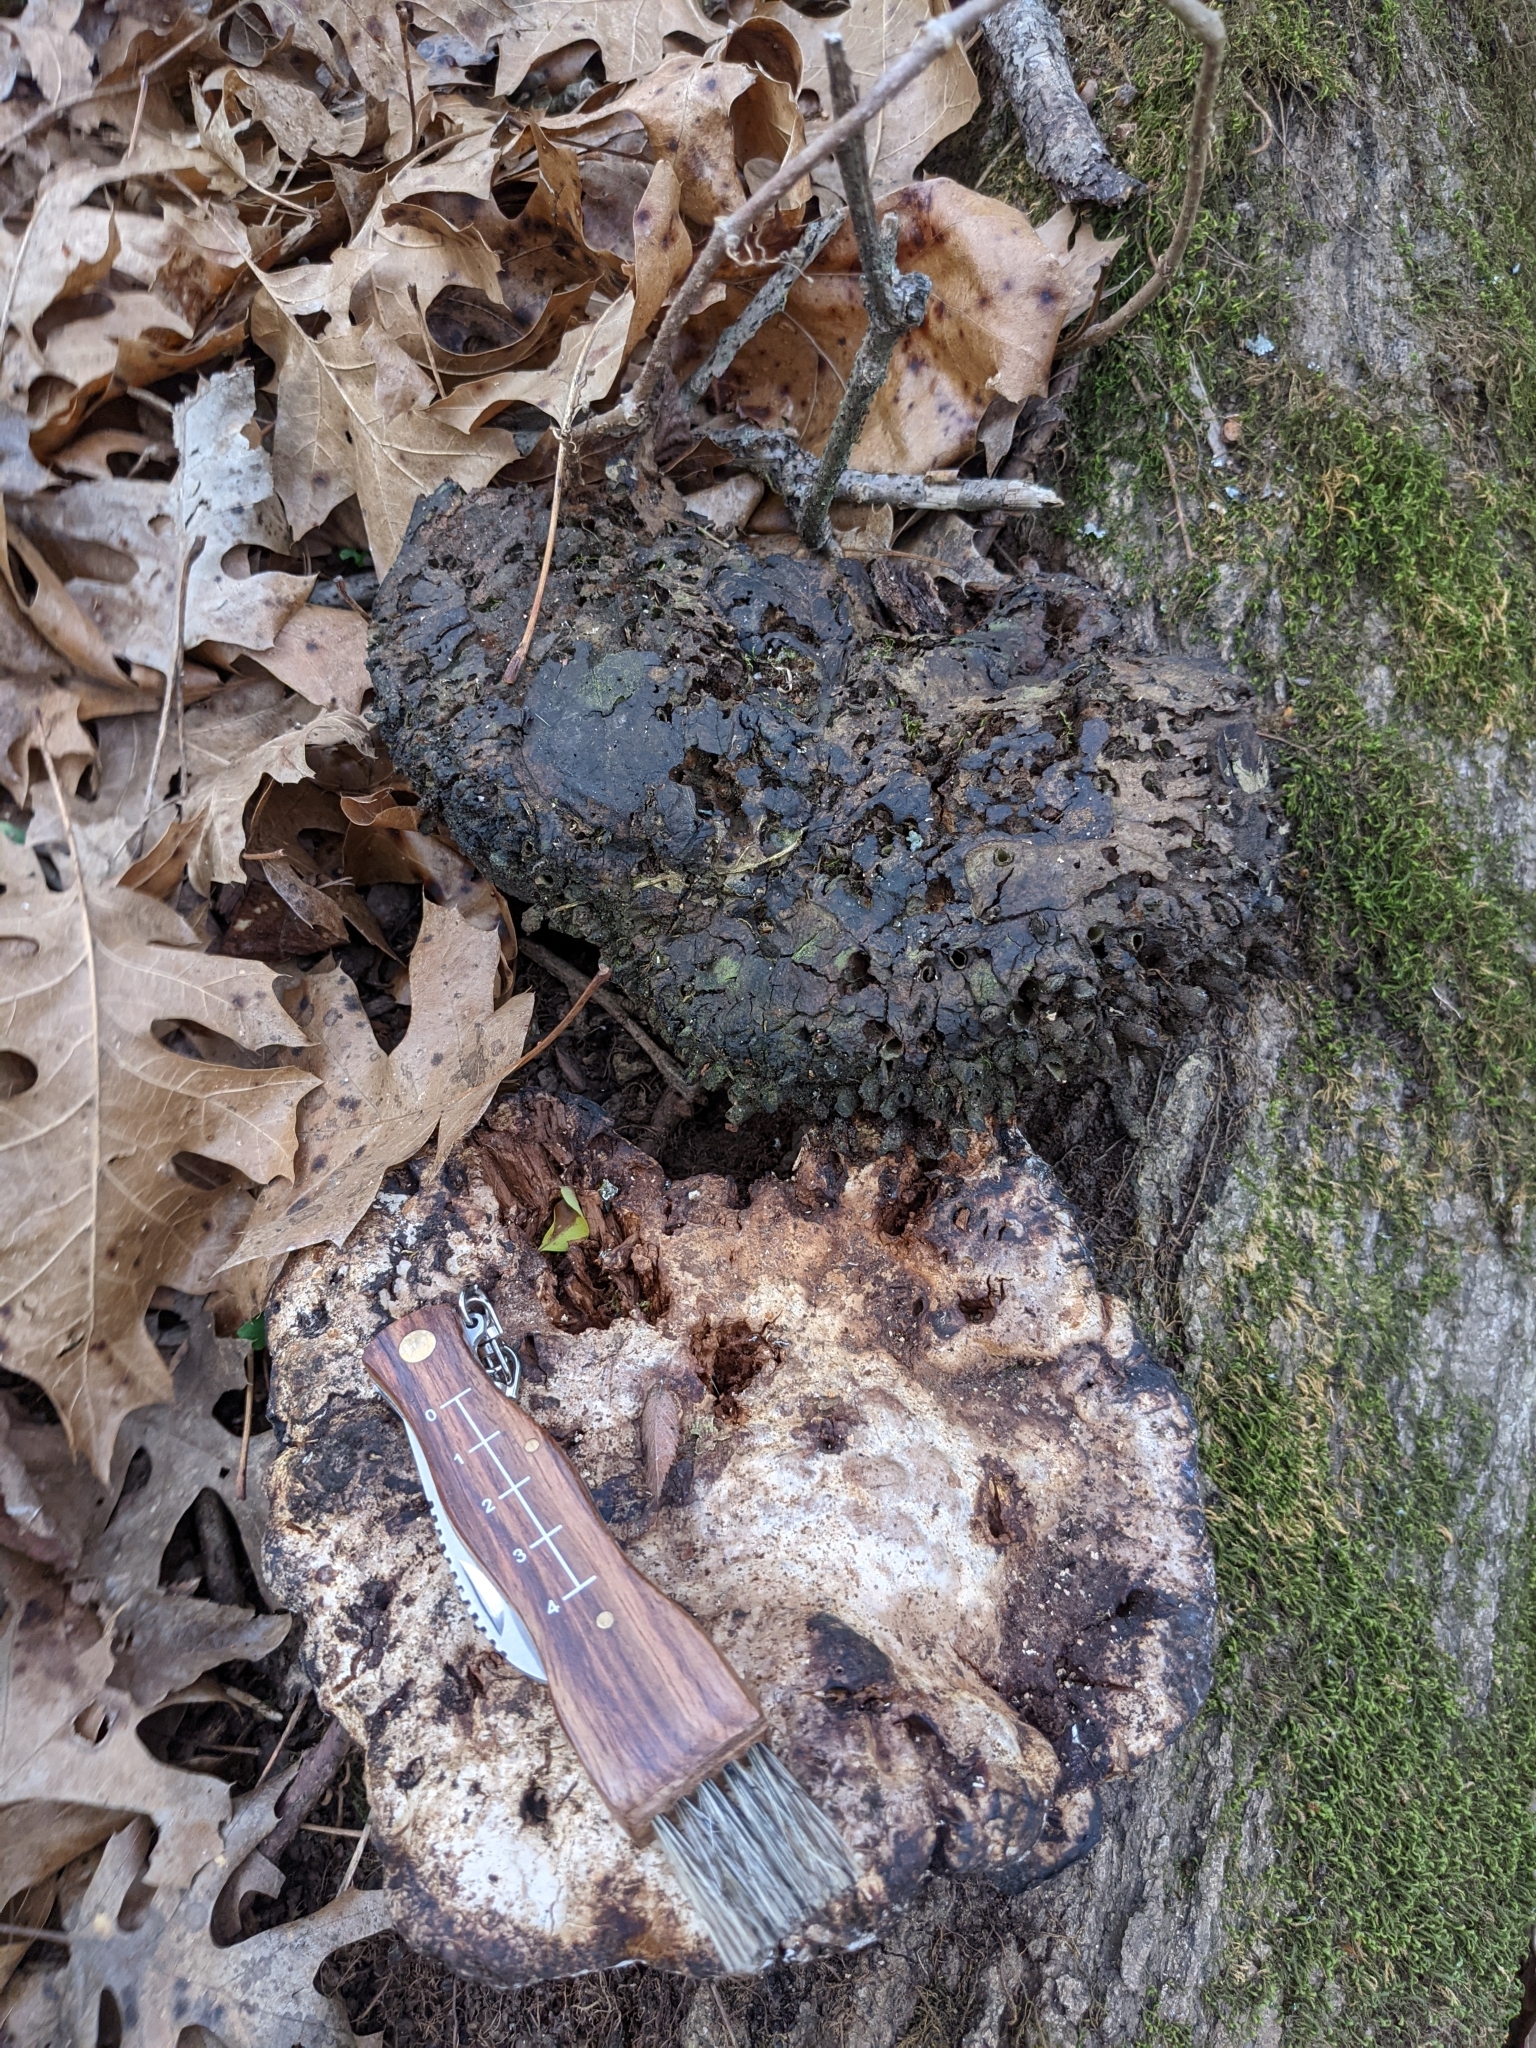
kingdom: Fungi
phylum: Basidiomycota
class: Agaricomycetes
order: Hymenochaetales
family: Hymenochaetaceae
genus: Pseudoinonotus
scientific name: Pseudoinonotus dryadeus
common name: Oak bracket
